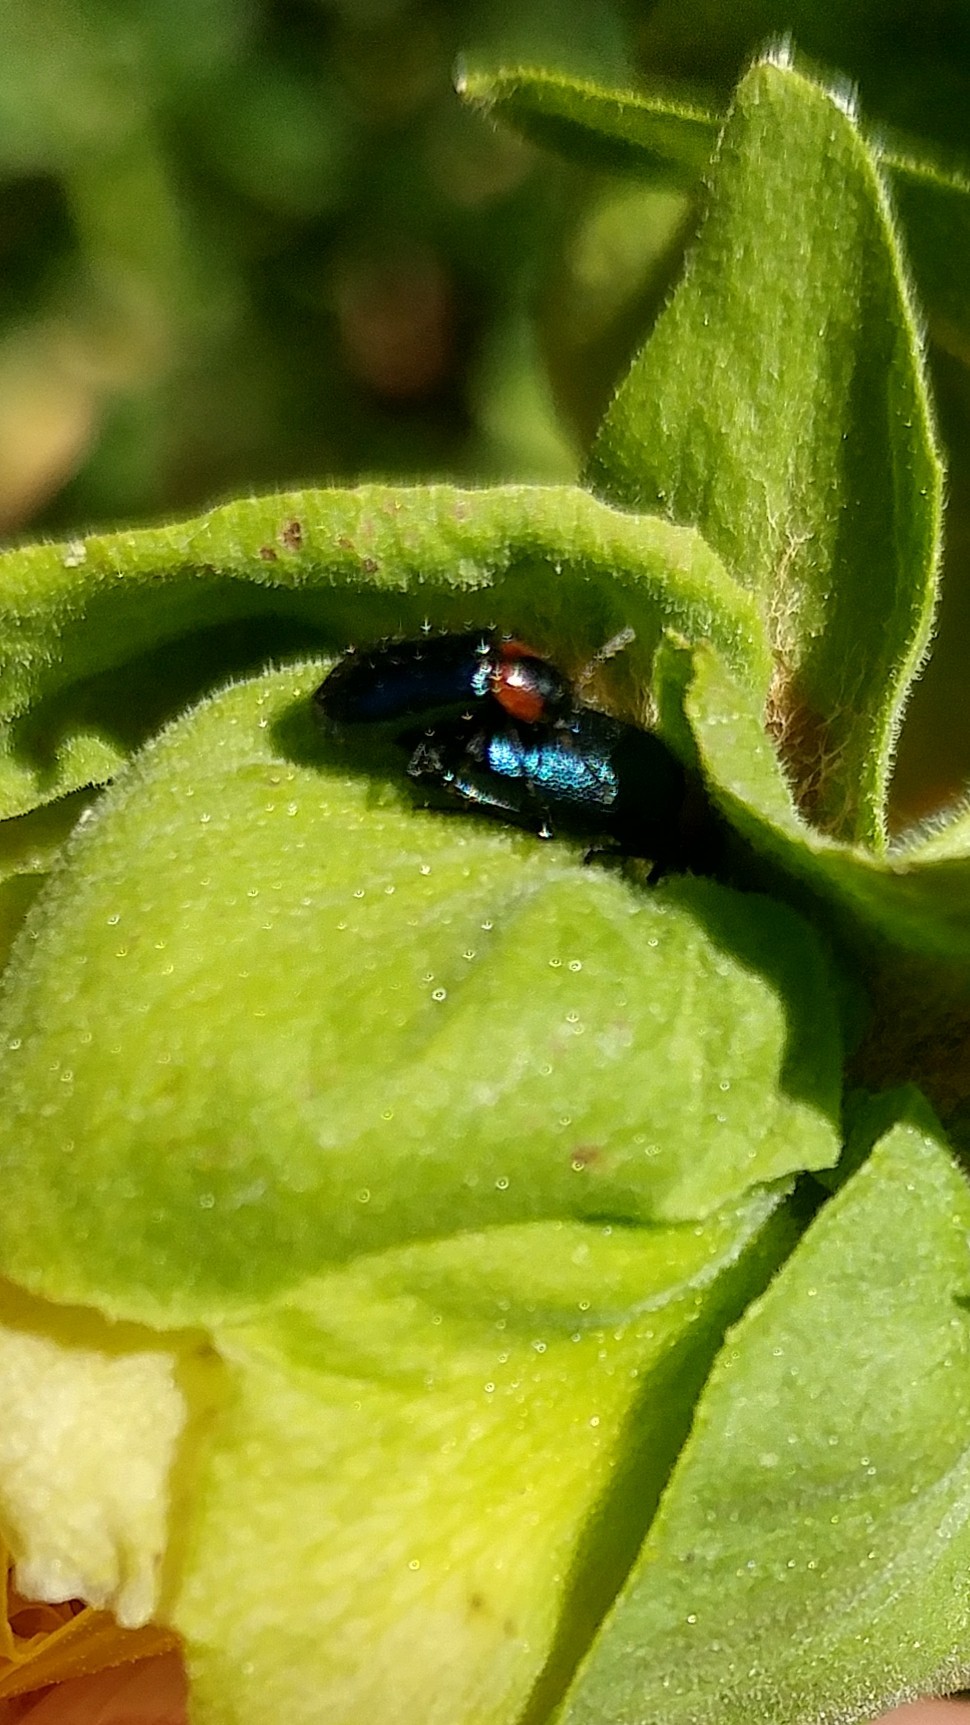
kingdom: Animalia
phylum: Arthropoda
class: Insecta
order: Coleoptera
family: Cleridae
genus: Loedelia
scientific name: Loedelia maculicollis
